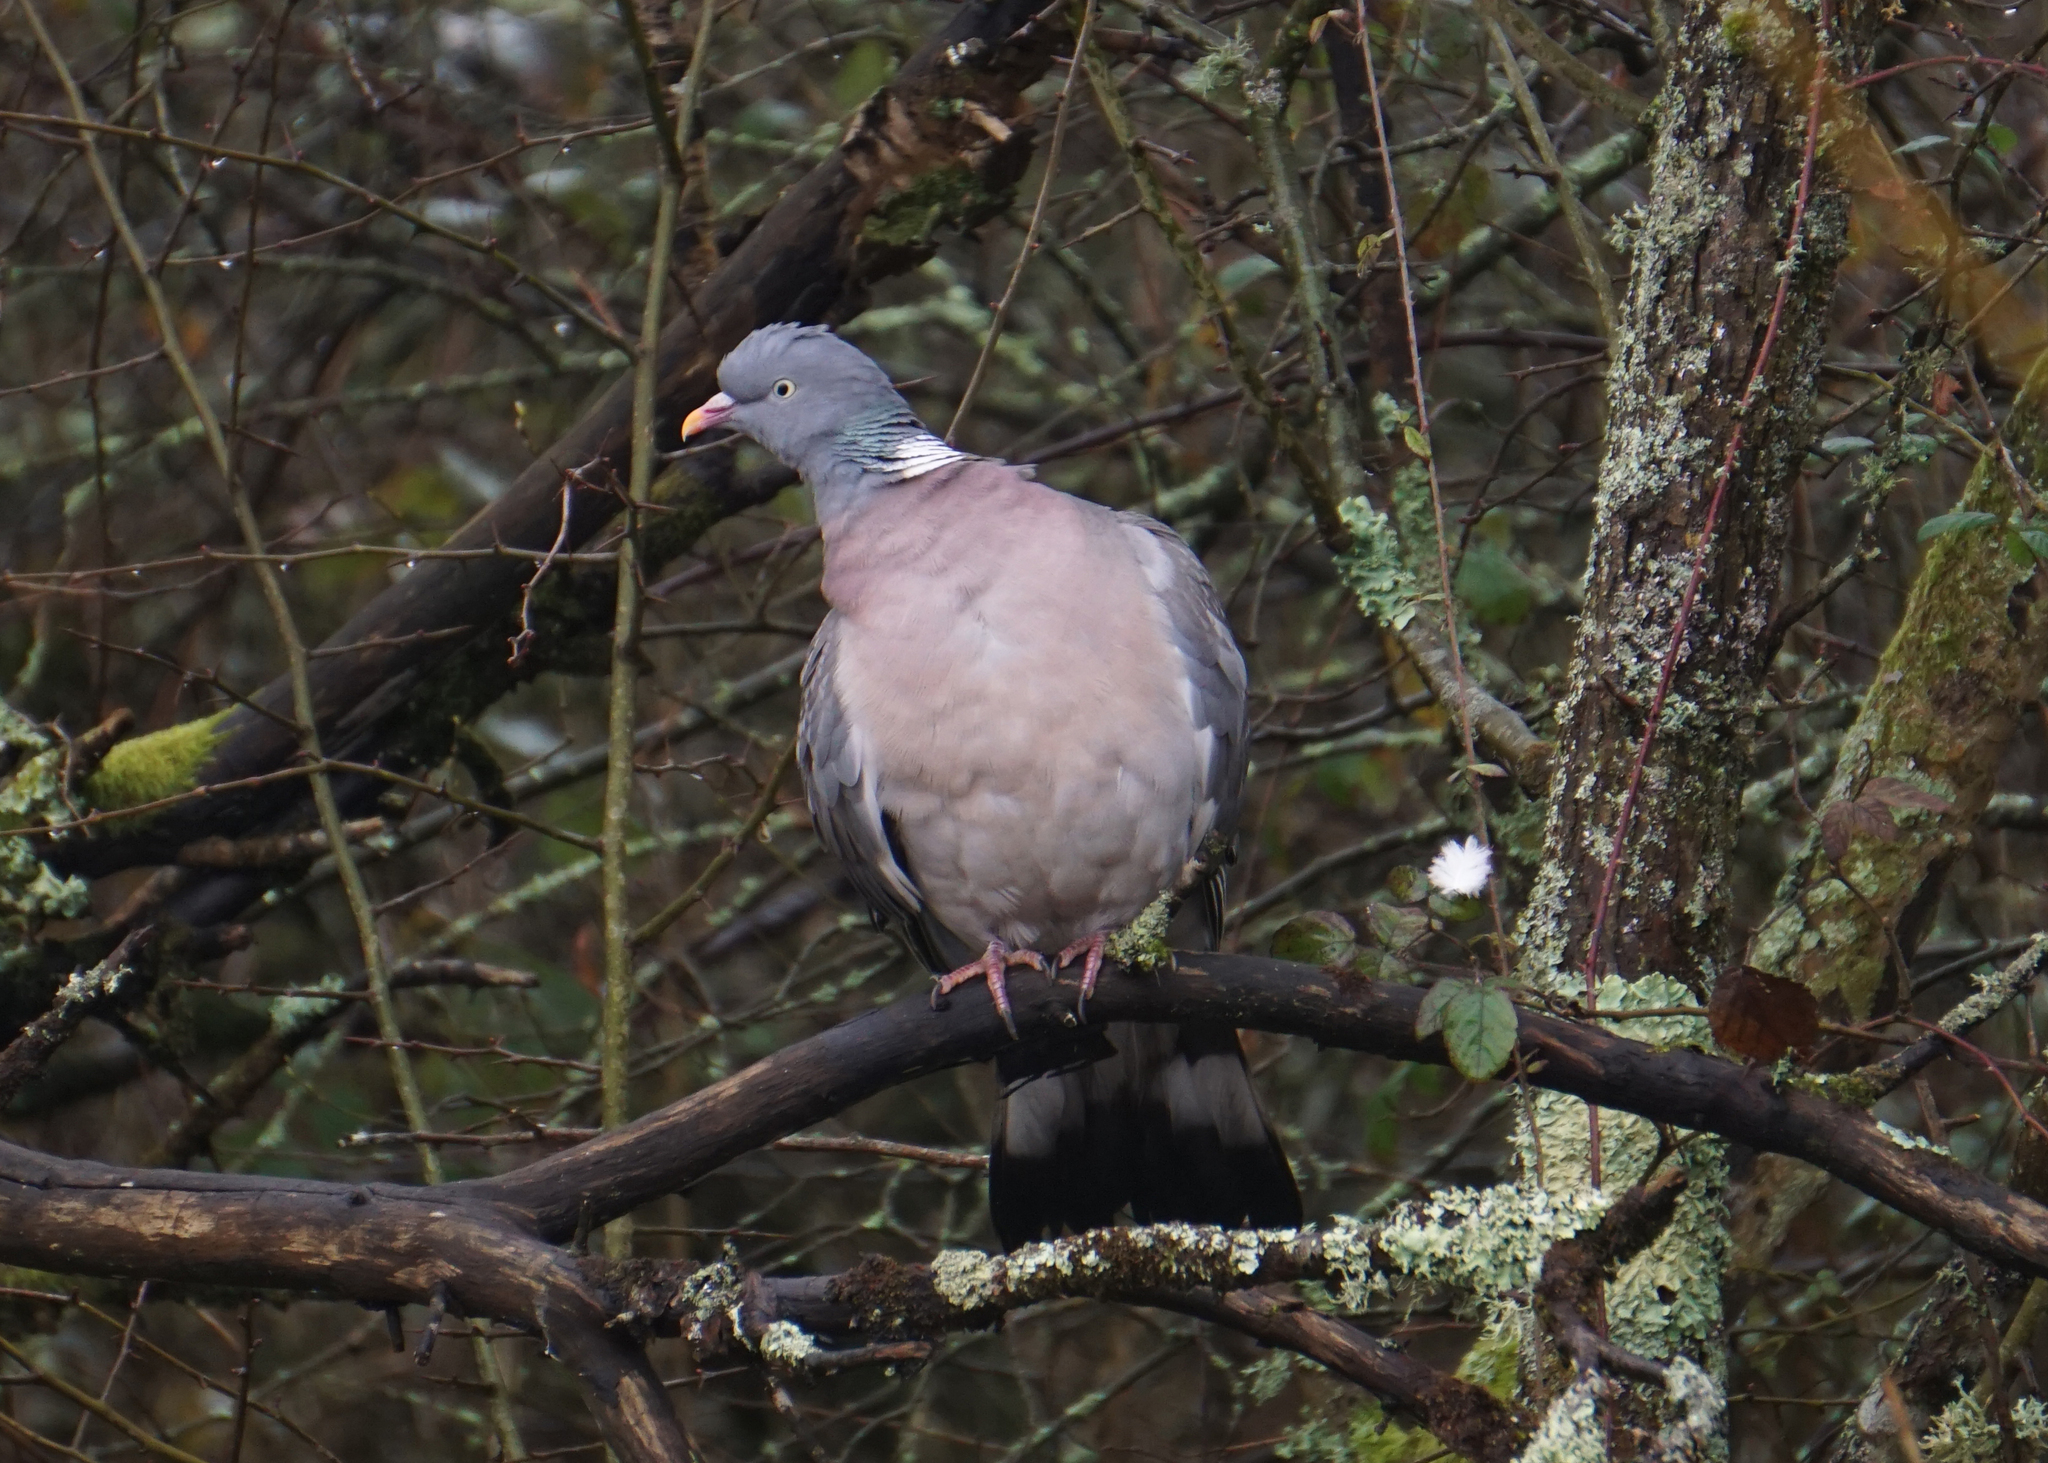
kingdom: Animalia
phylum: Chordata
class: Aves
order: Columbiformes
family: Columbidae
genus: Columba
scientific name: Columba palumbus
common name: Common wood pigeon
